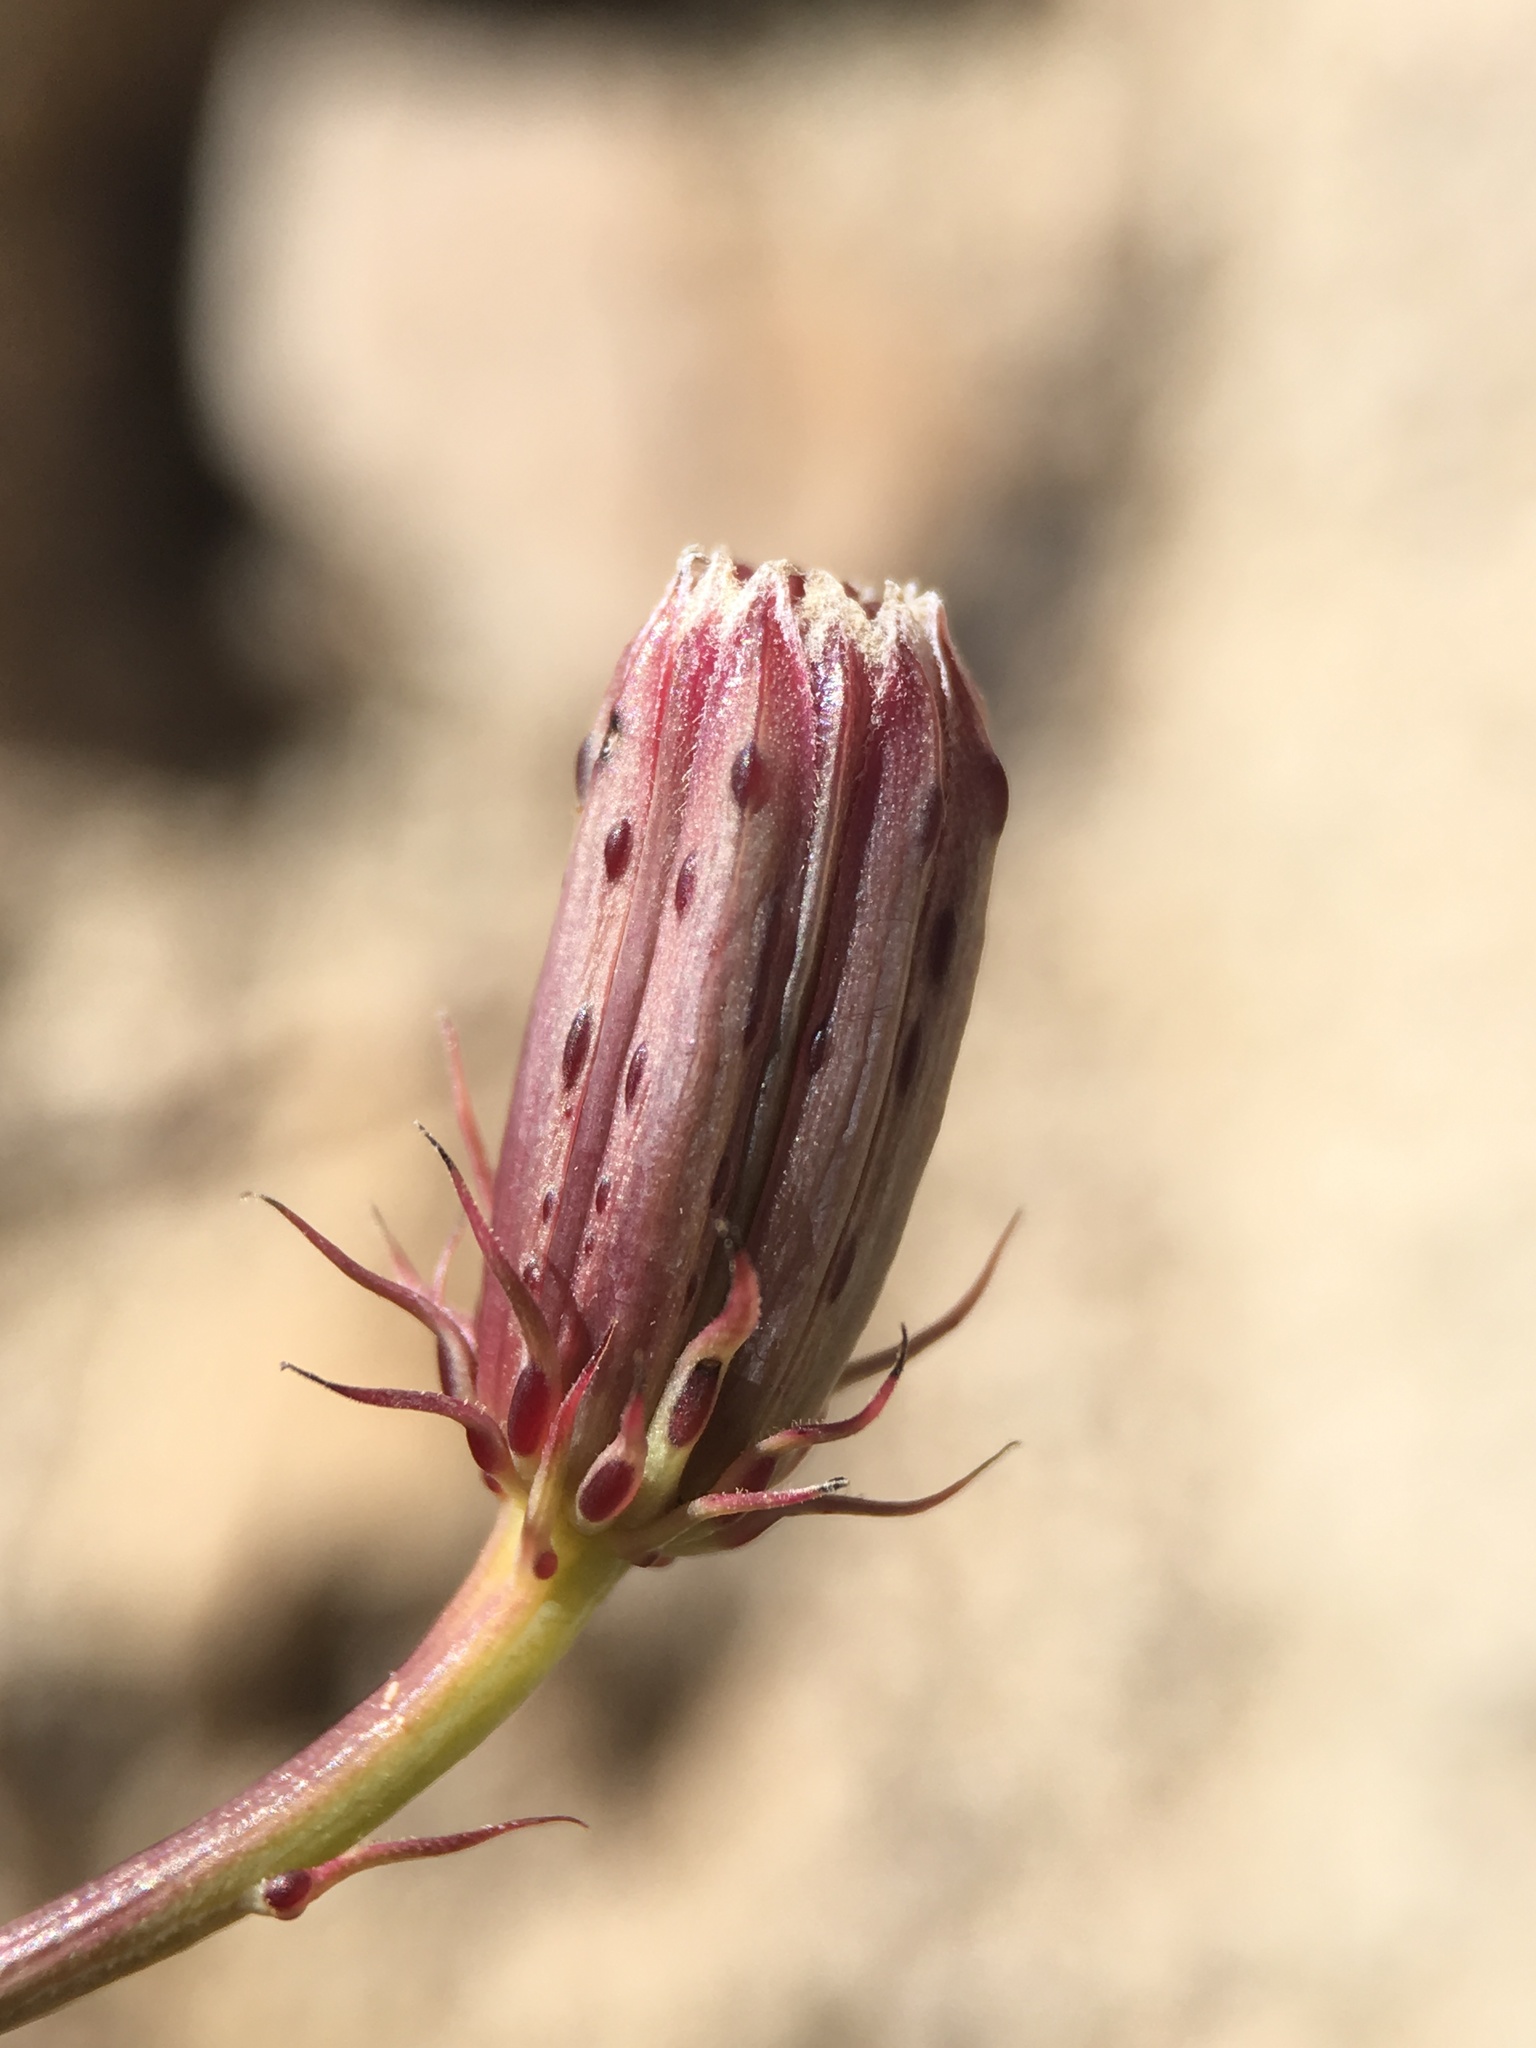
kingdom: Plantae
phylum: Tracheophyta
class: Magnoliopsida
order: Asterales
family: Asteraceae
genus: Adenophyllum
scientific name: Adenophyllum porophylloides
